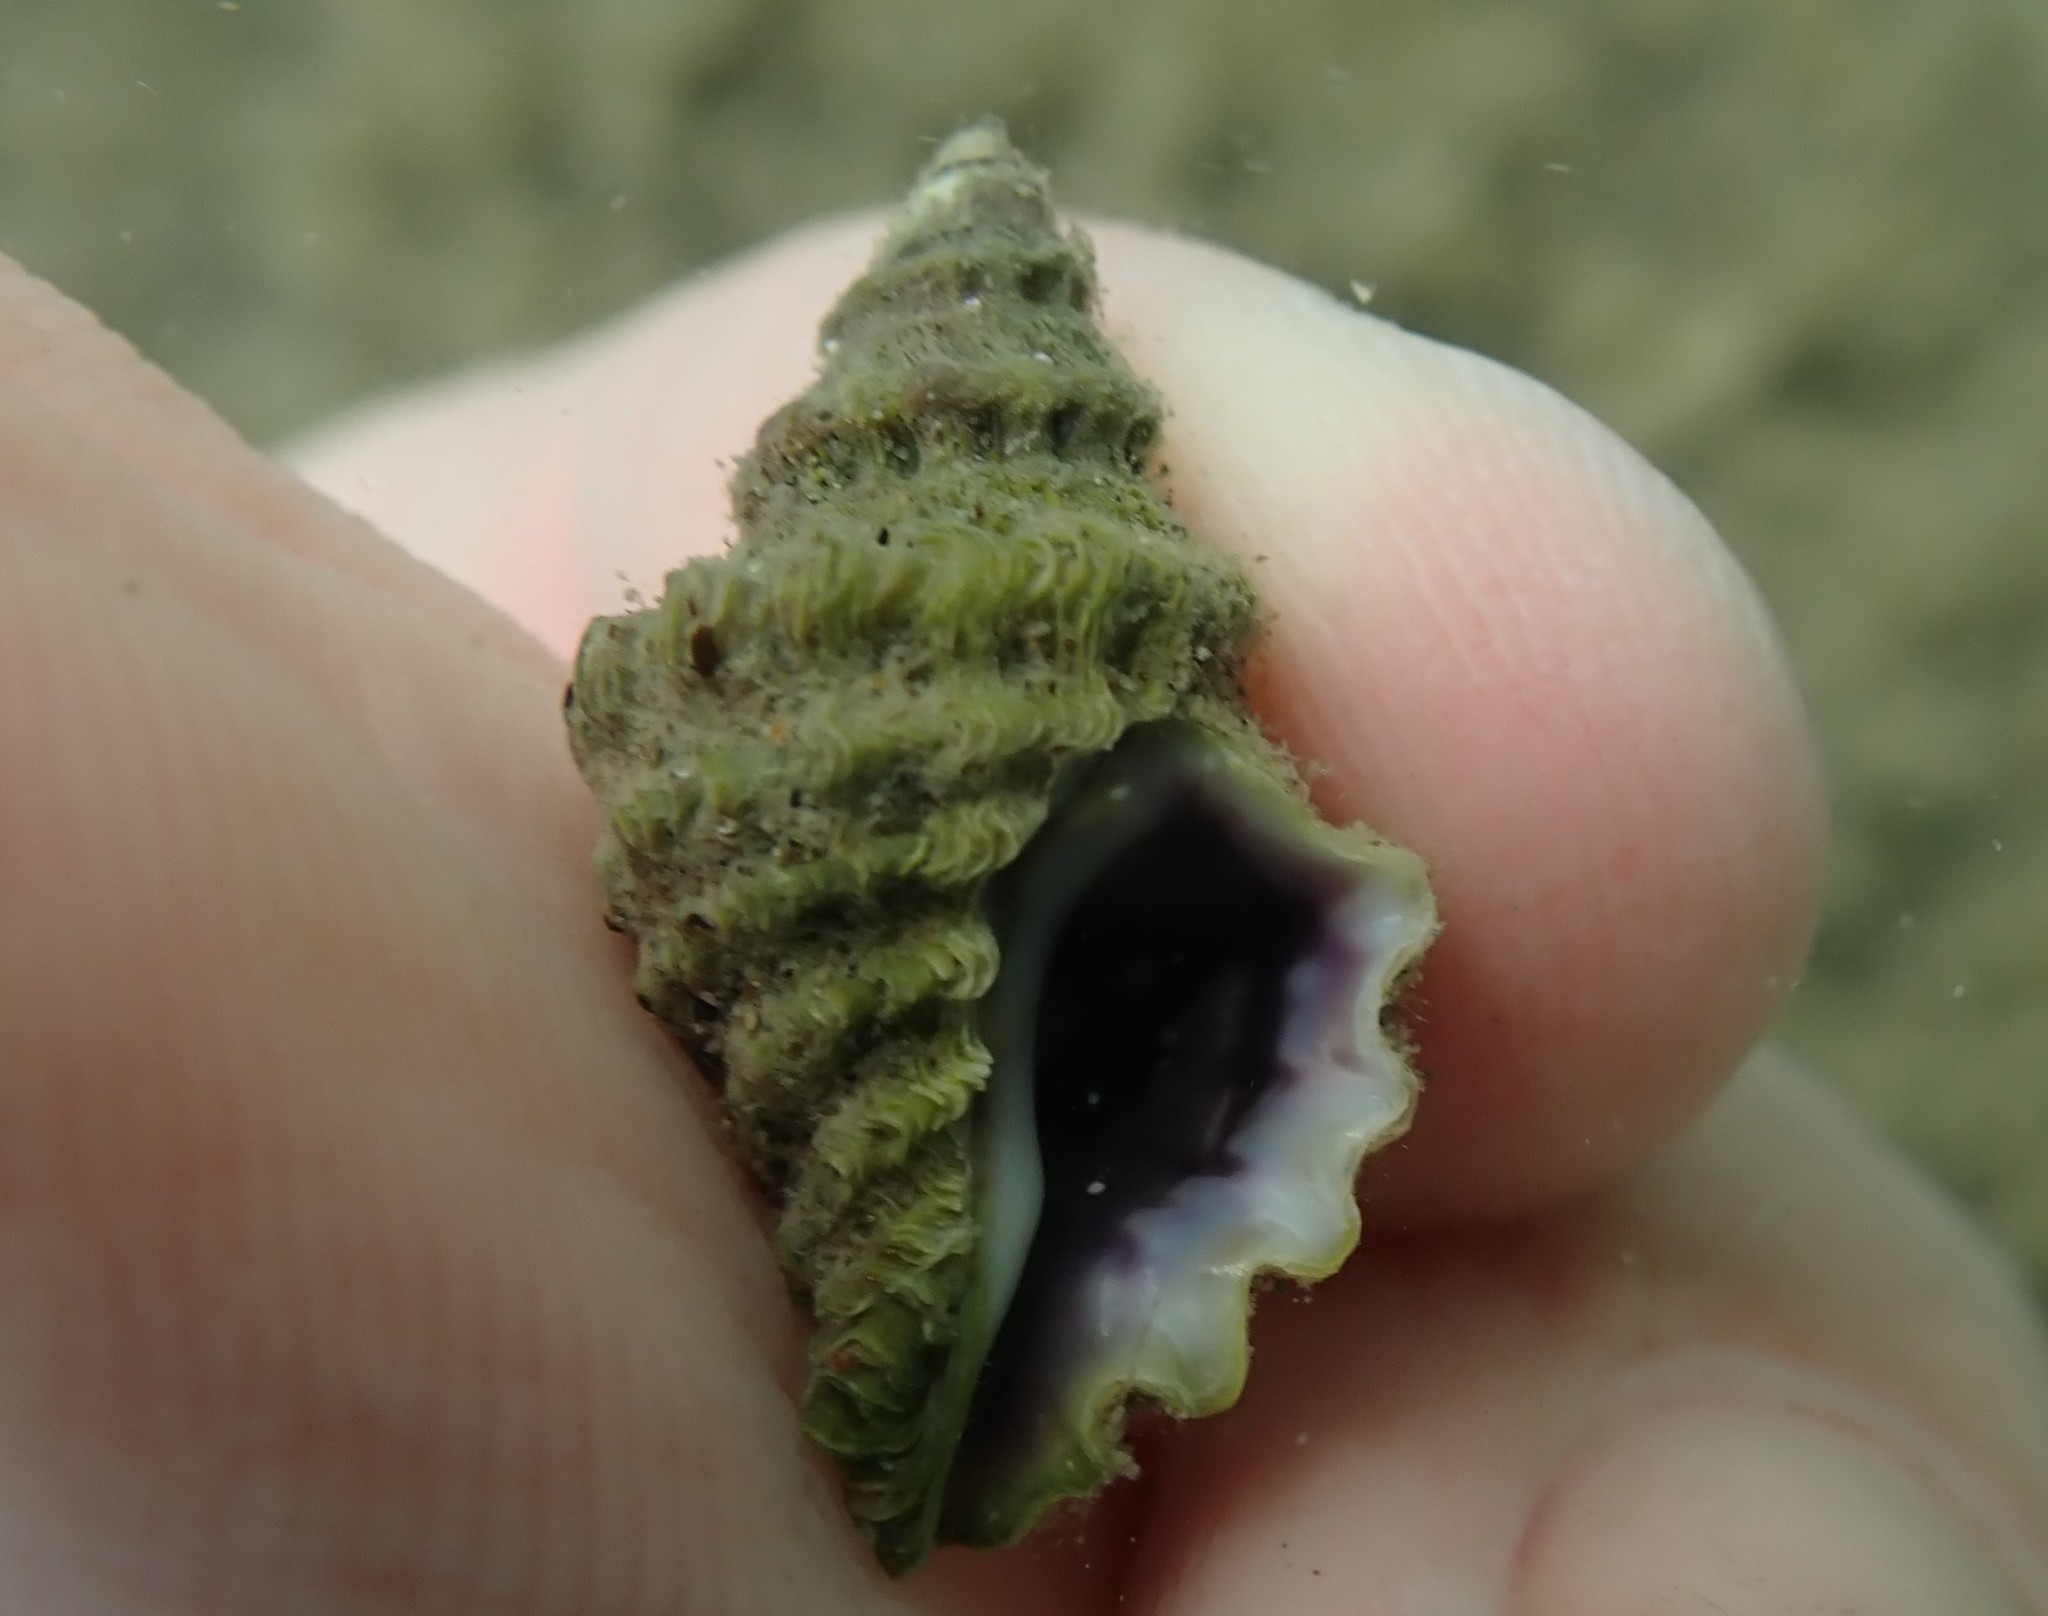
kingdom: Animalia
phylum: Mollusca
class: Gastropoda
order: Neogastropoda
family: Muricidae
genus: Paratrophon
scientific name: Paratrophon quoyi
